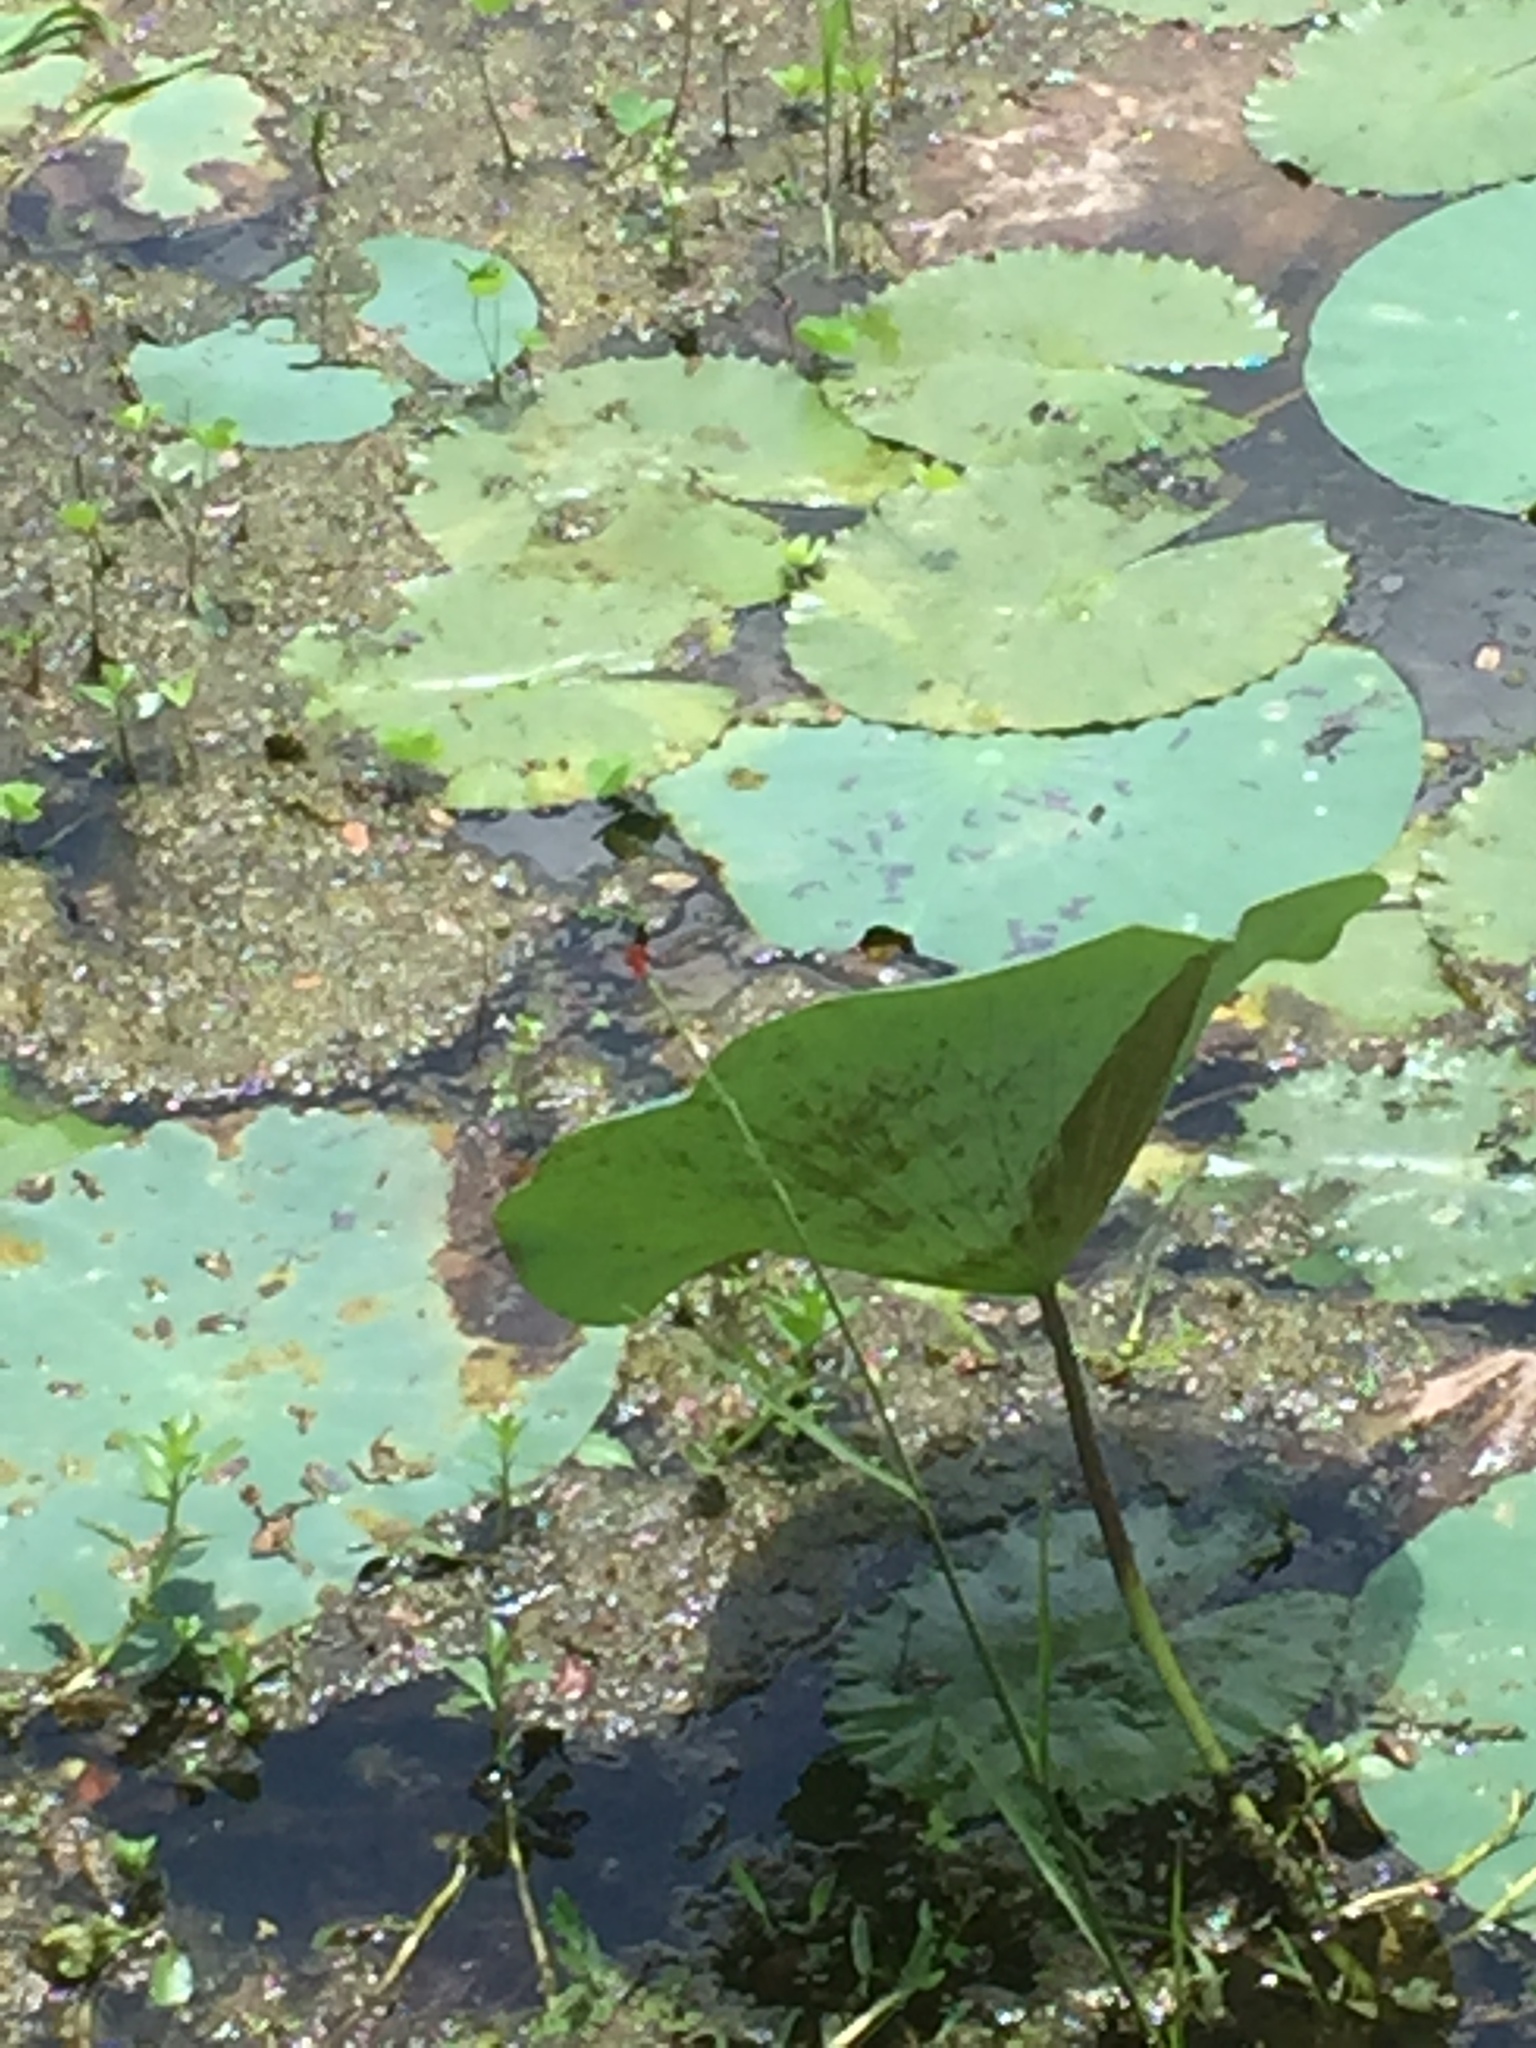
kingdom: Plantae
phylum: Tracheophyta
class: Magnoliopsida
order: Proteales
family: Nelumbonaceae
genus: Nelumbo
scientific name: Nelumbo nucifera
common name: Sacred lotus
